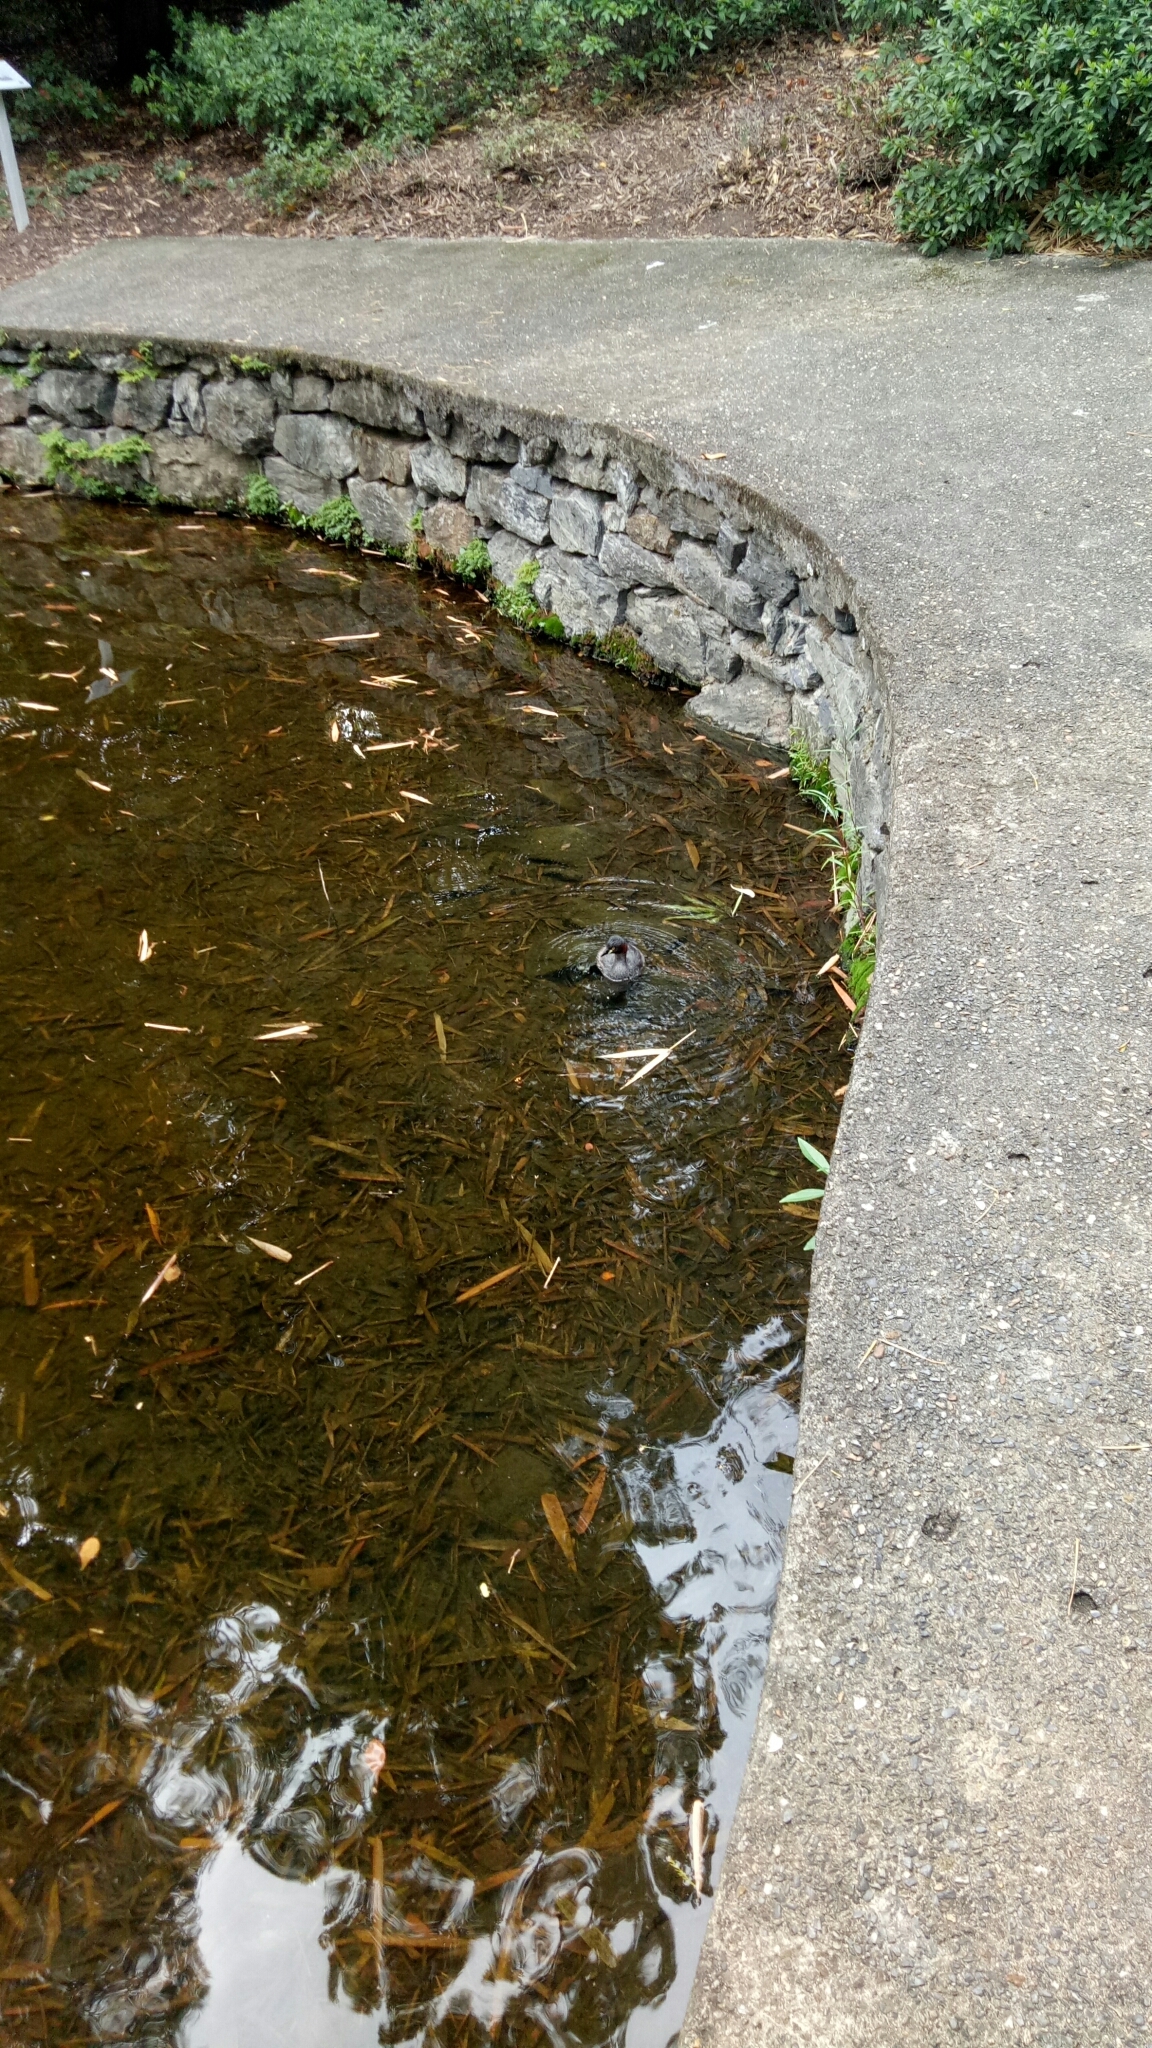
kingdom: Animalia
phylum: Chordata
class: Aves
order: Podicipediformes
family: Podicipedidae
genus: Tachybaptus
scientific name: Tachybaptus novaehollandiae
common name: Australasian grebe
